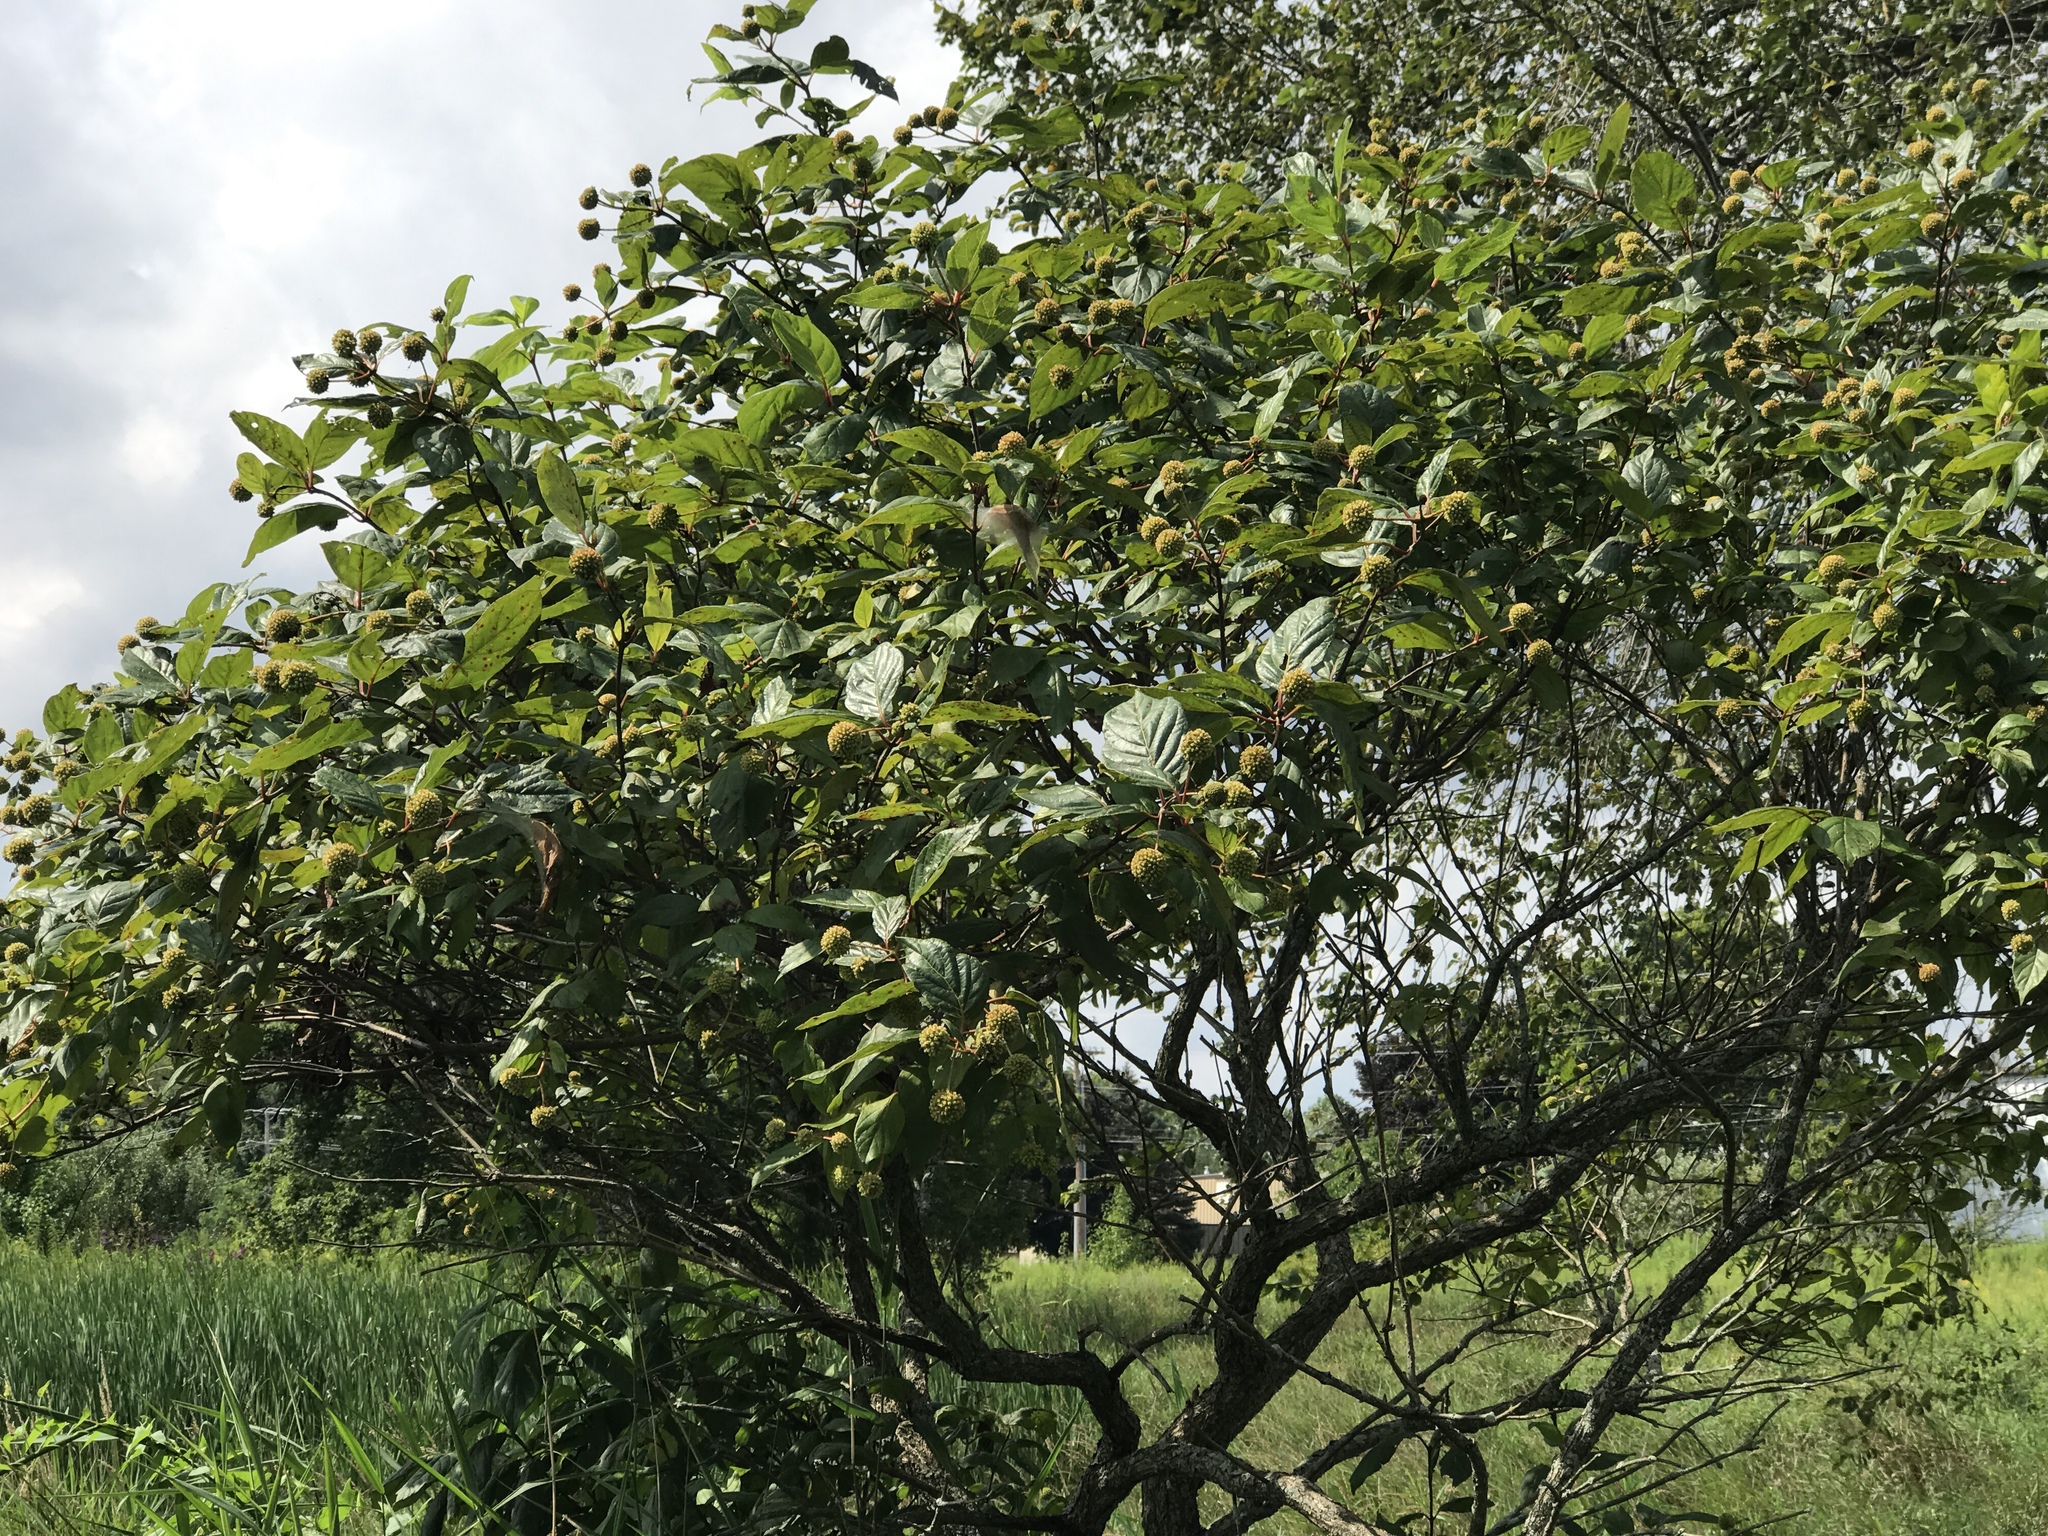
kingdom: Plantae
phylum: Tracheophyta
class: Magnoliopsida
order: Gentianales
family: Rubiaceae
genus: Cephalanthus
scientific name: Cephalanthus occidentalis
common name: Button-willow
